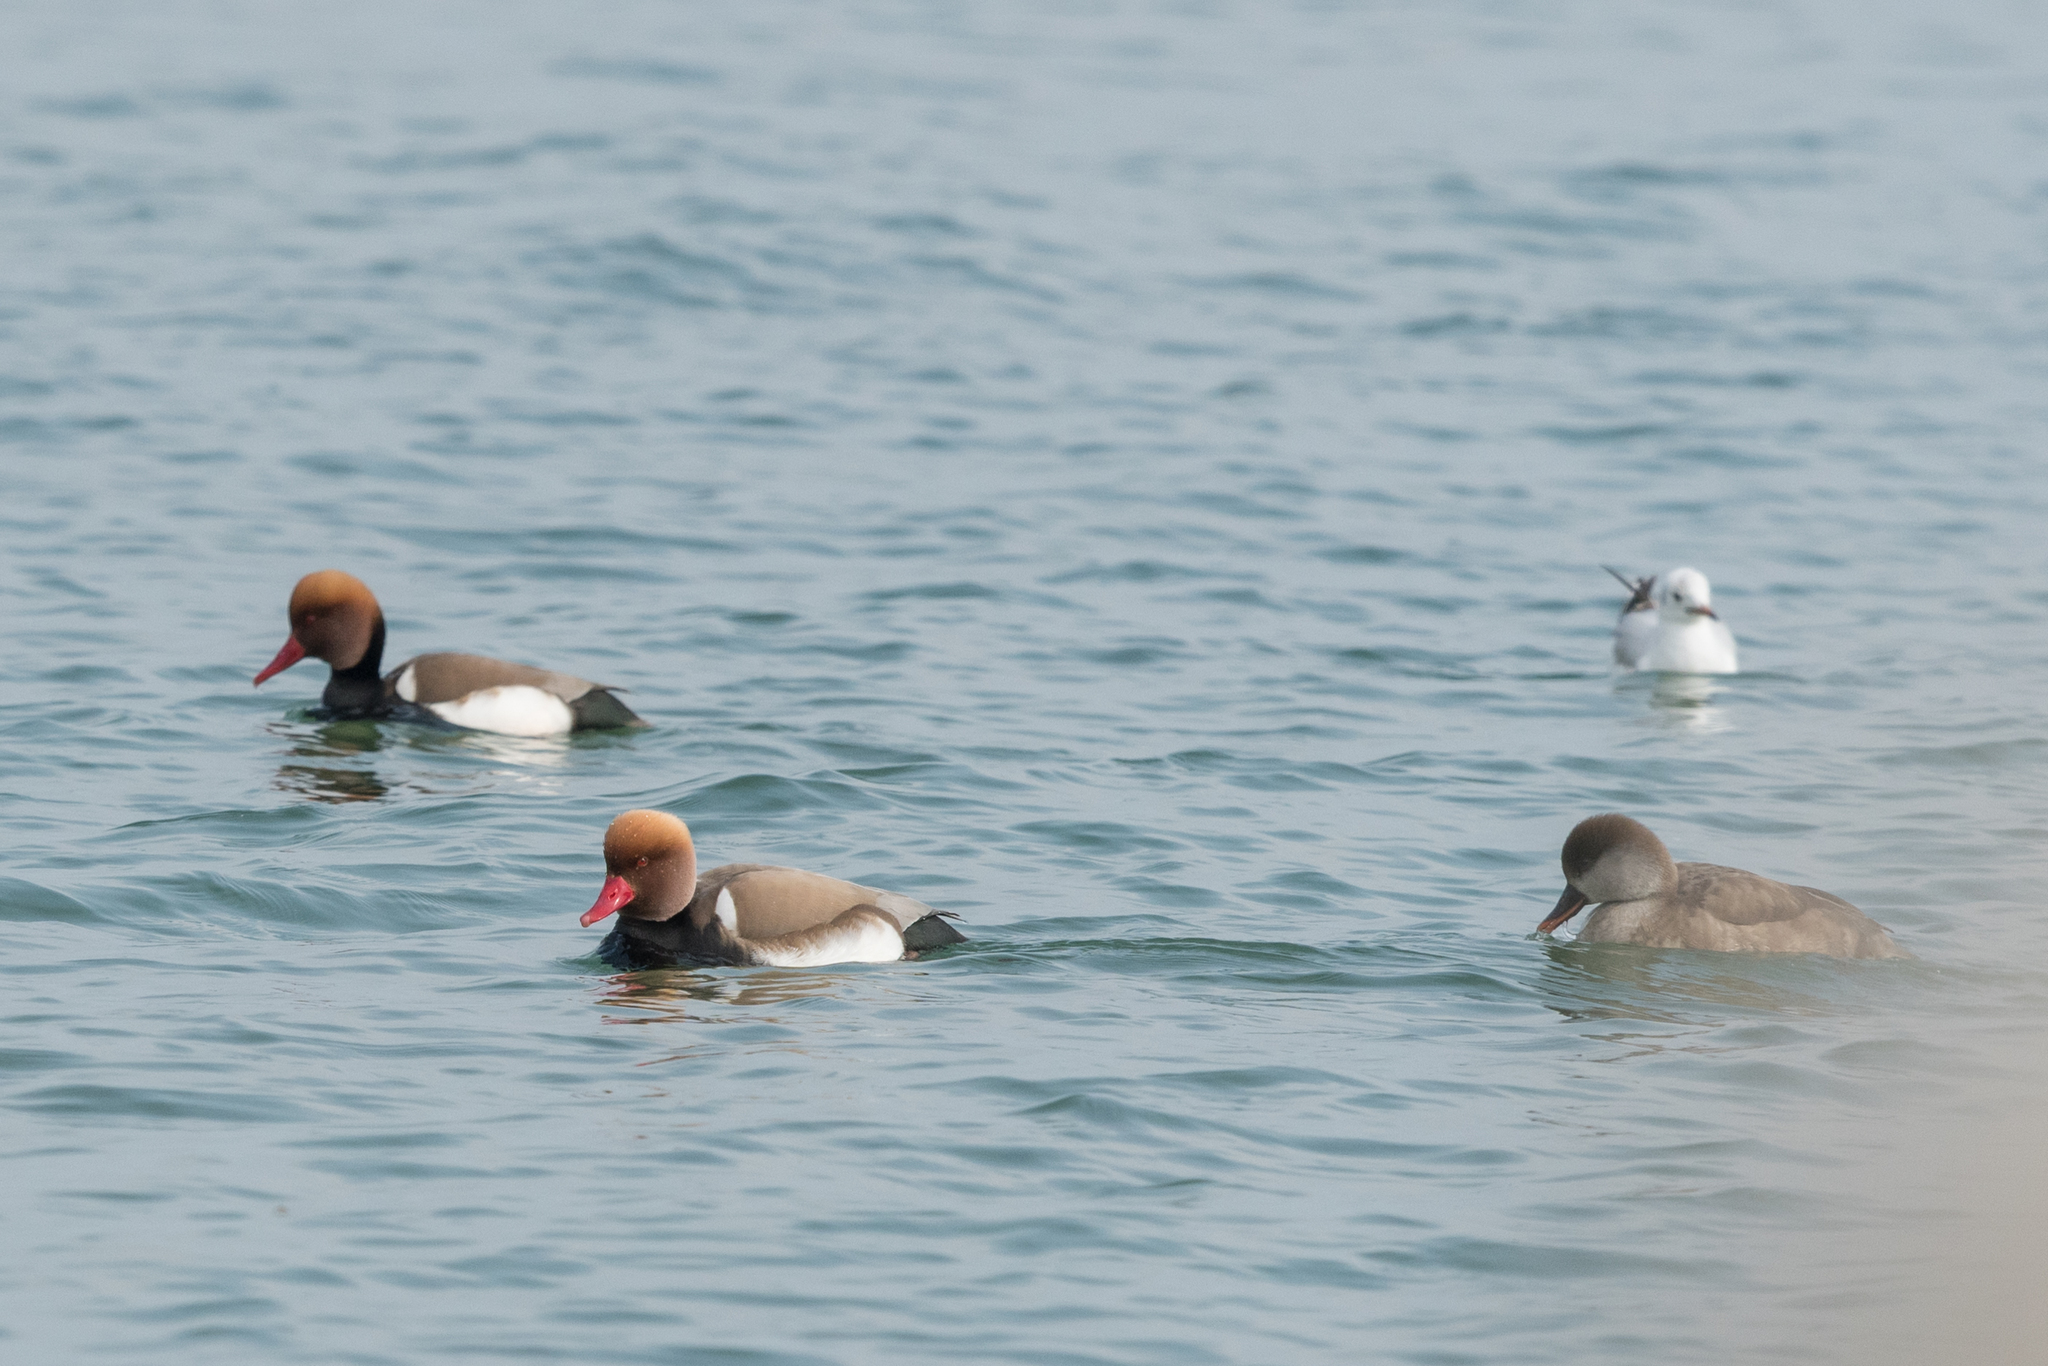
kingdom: Animalia
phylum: Chordata
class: Aves
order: Anseriformes
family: Anatidae
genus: Netta
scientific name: Netta rufina
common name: Red-crested pochard
